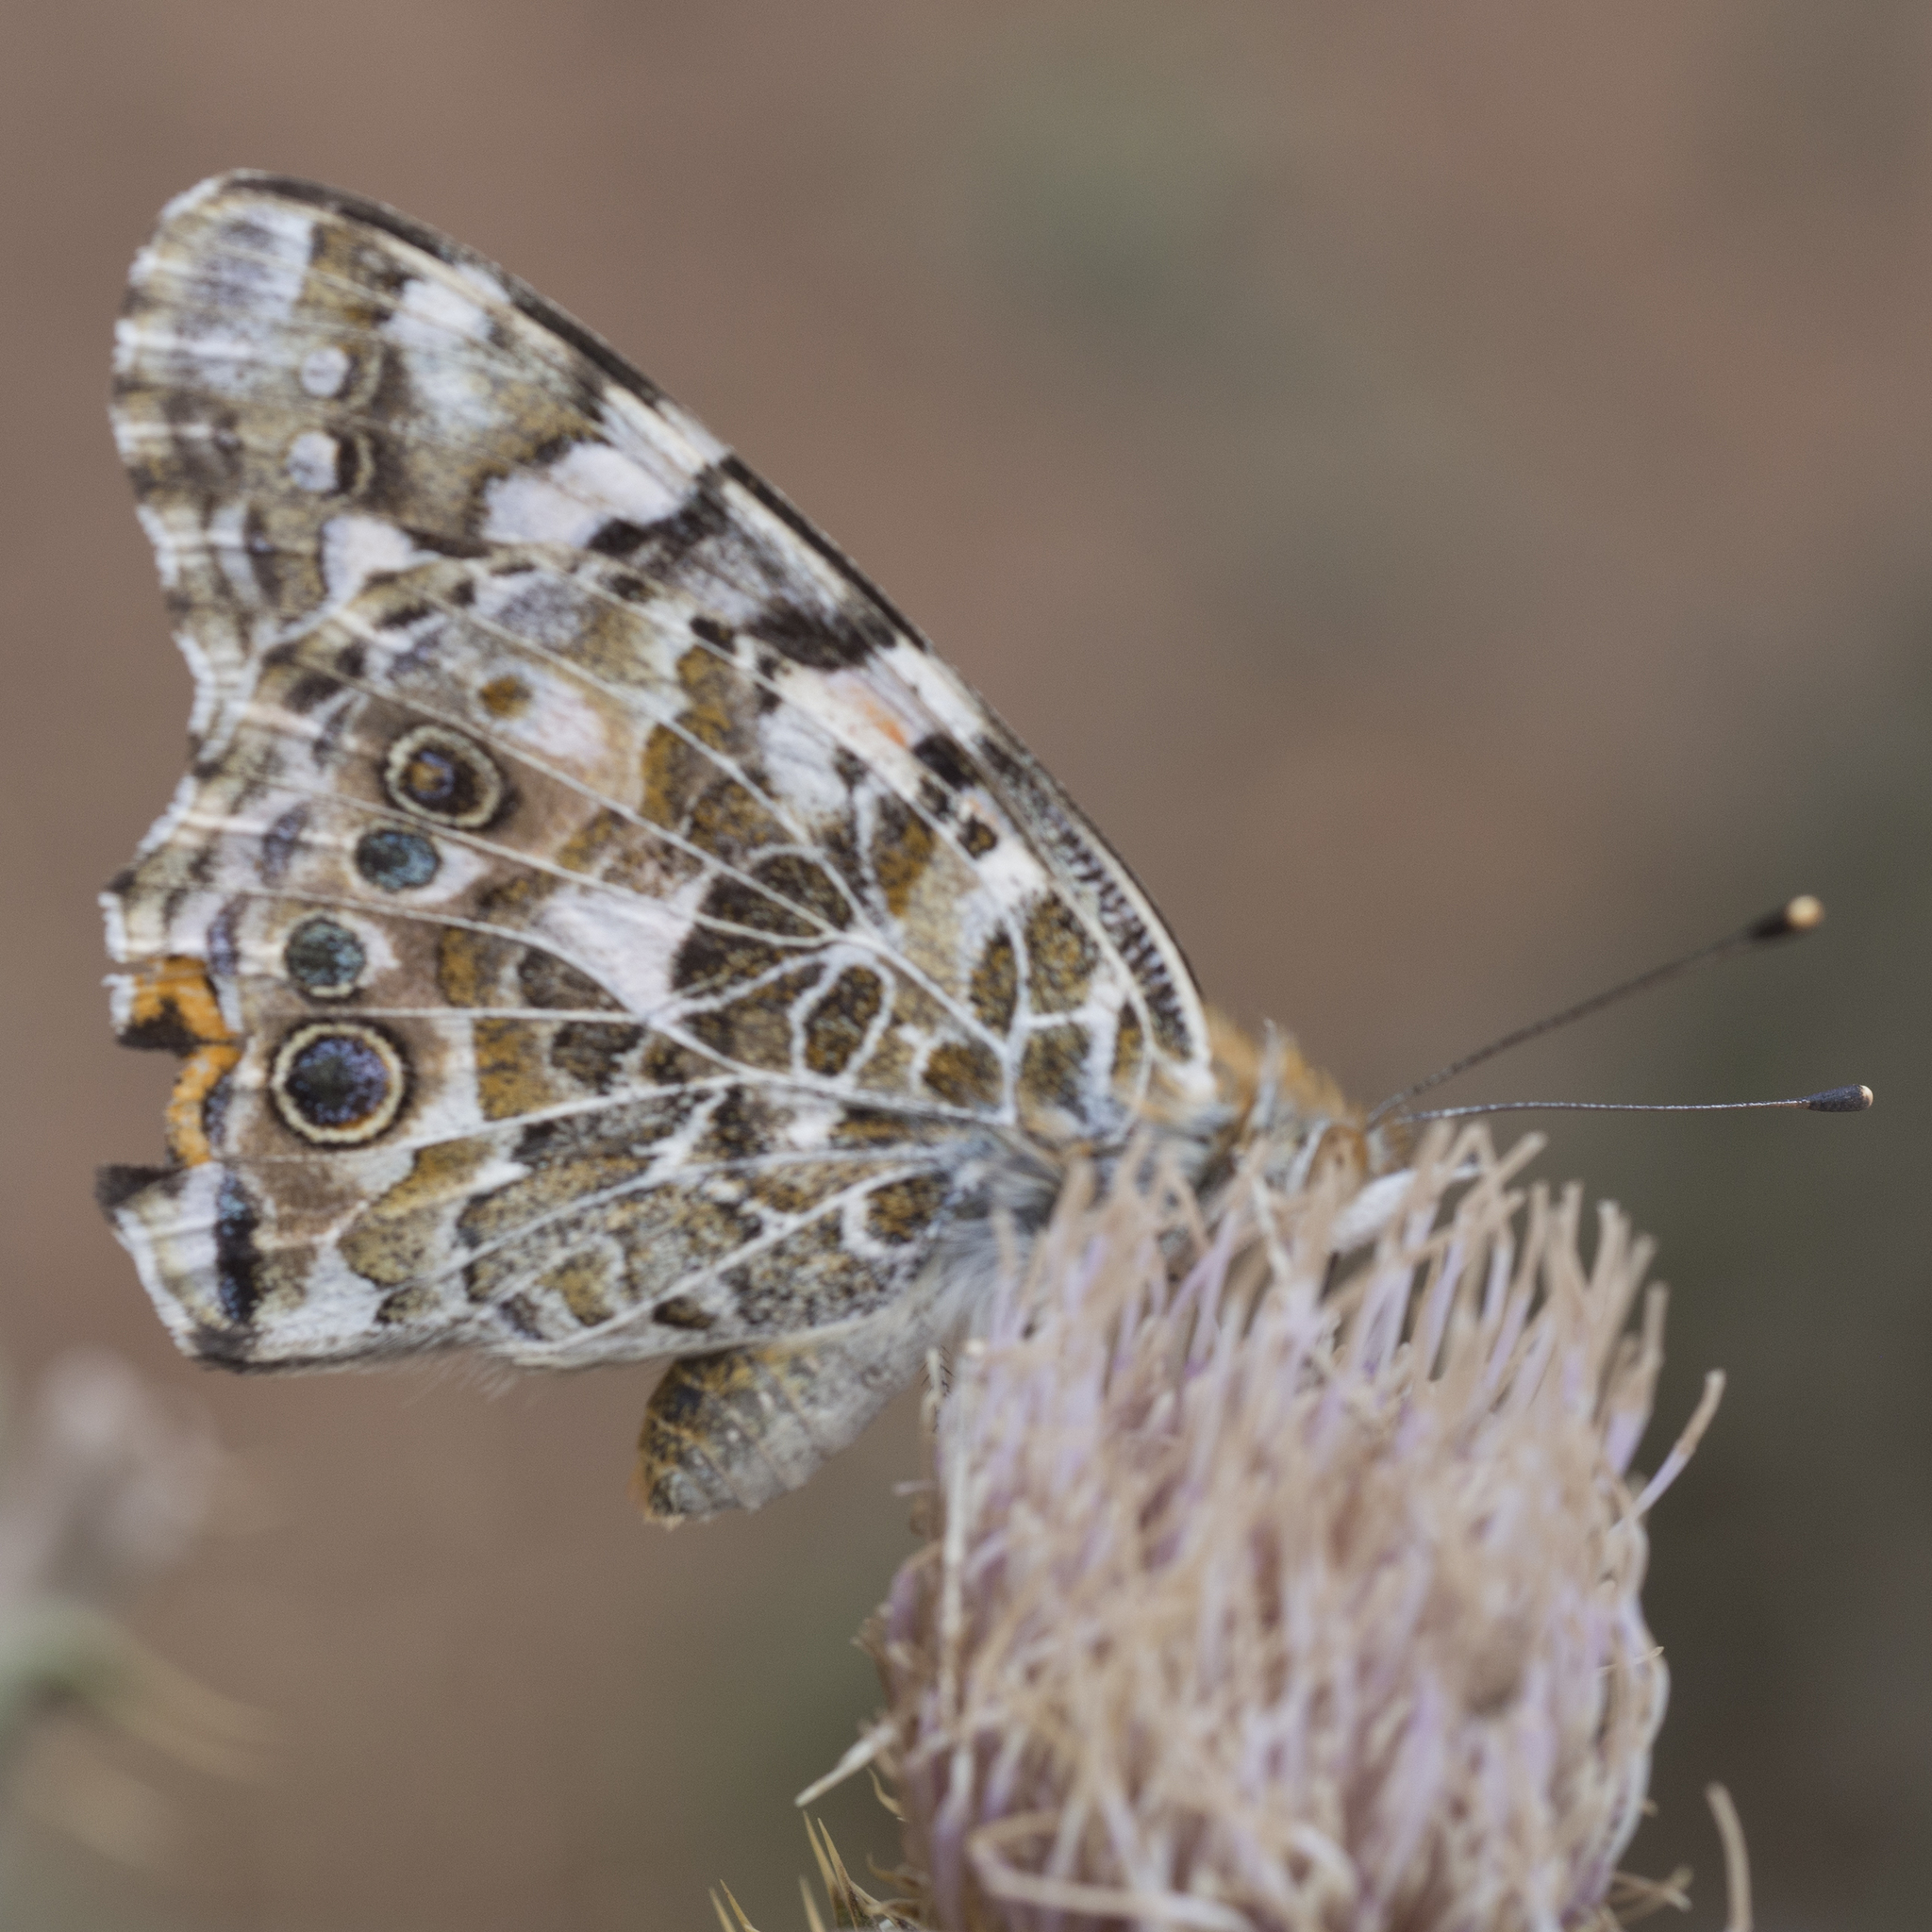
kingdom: Animalia
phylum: Arthropoda
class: Insecta
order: Lepidoptera
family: Nymphalidae
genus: Vanessa
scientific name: Vanessa cardui
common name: Painted lady
